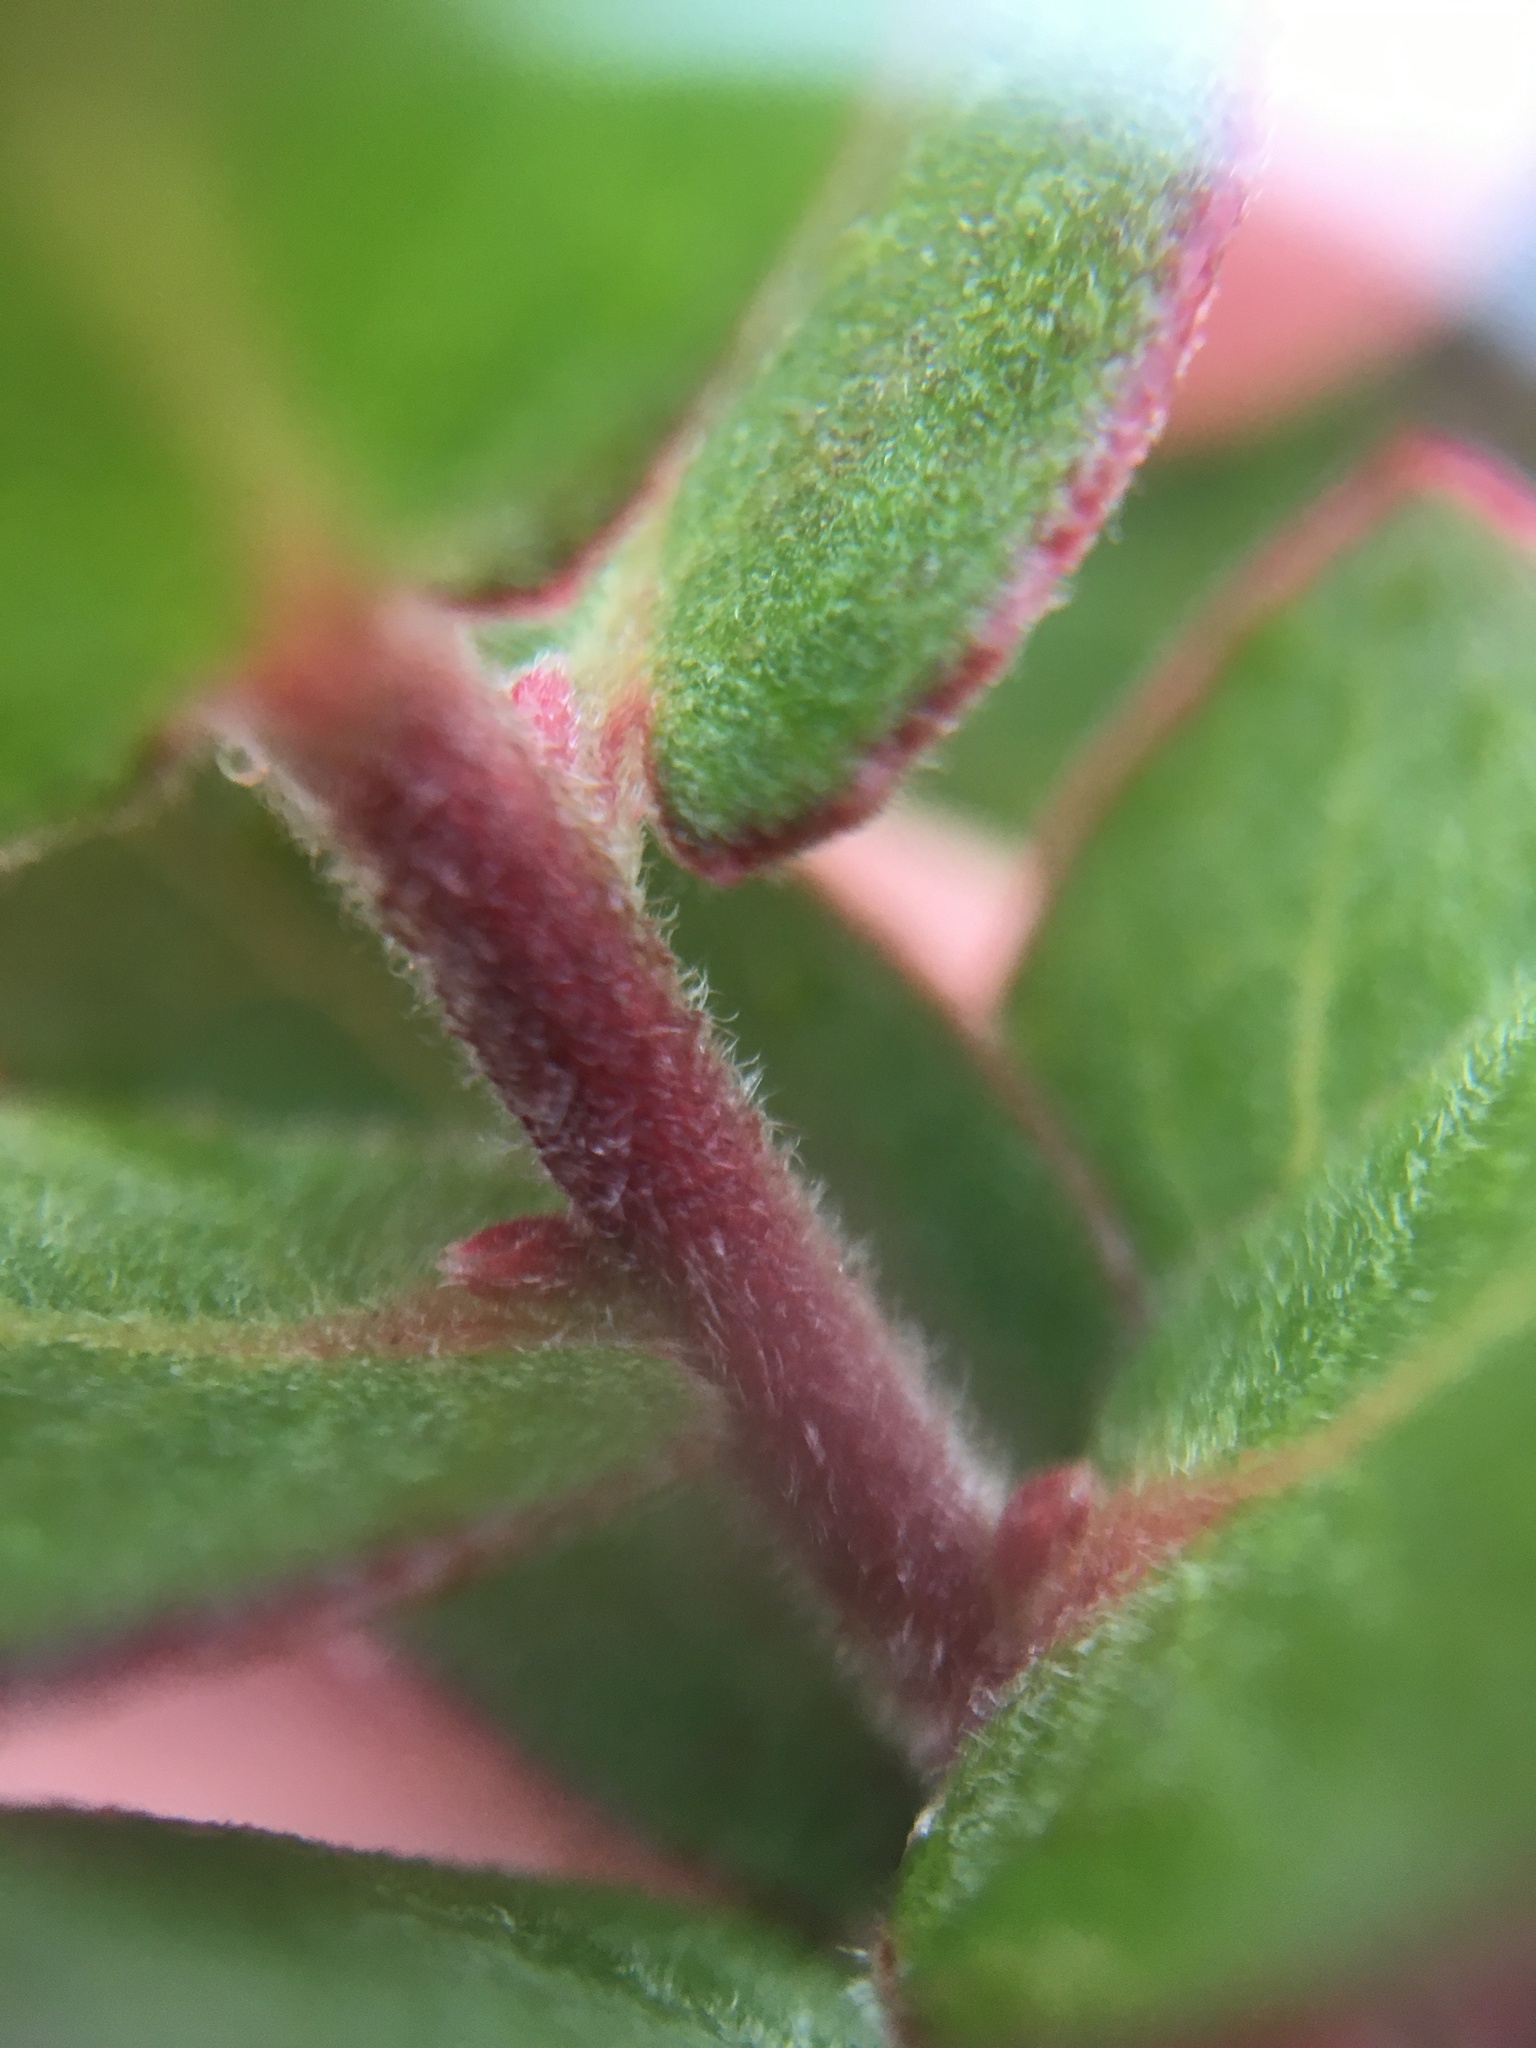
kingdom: Plantae
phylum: Tracheophyta
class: Magnoliopsida
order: Ericales
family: Ericaceae
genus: Arctostaphylos
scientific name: Arctostaphylos cruzensis
